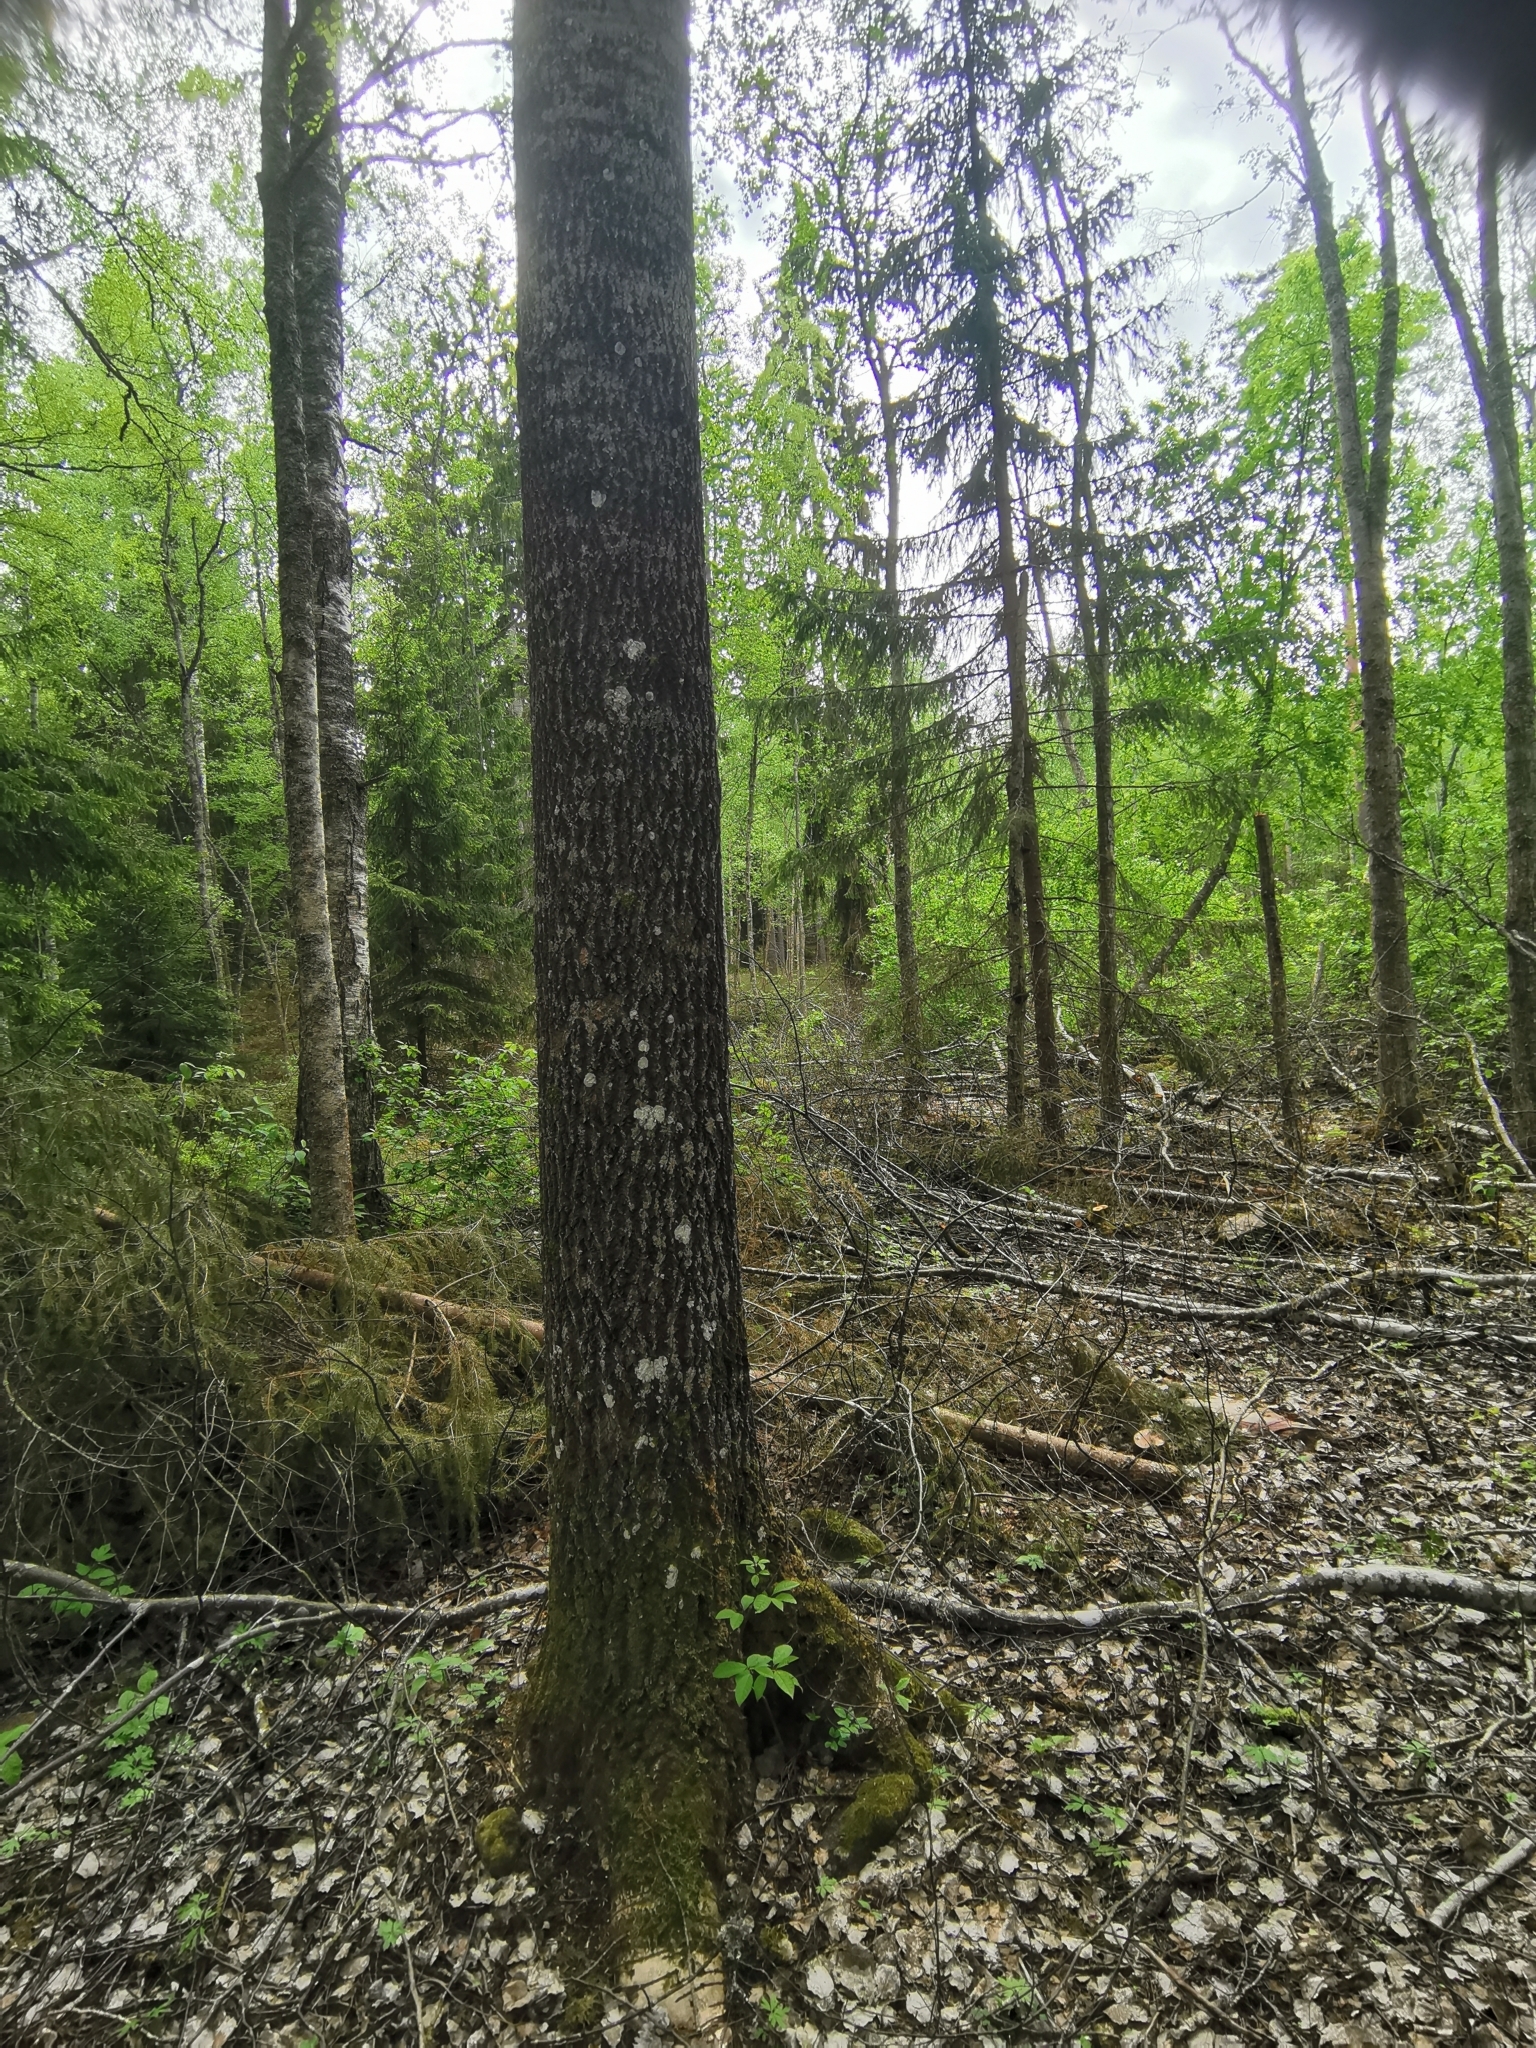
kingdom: Animalia
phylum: Chordata
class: Mammalia
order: Rodentia
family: Sciuridae
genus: Pteromys
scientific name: Pteromys volans
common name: Siberian flying squirrel
